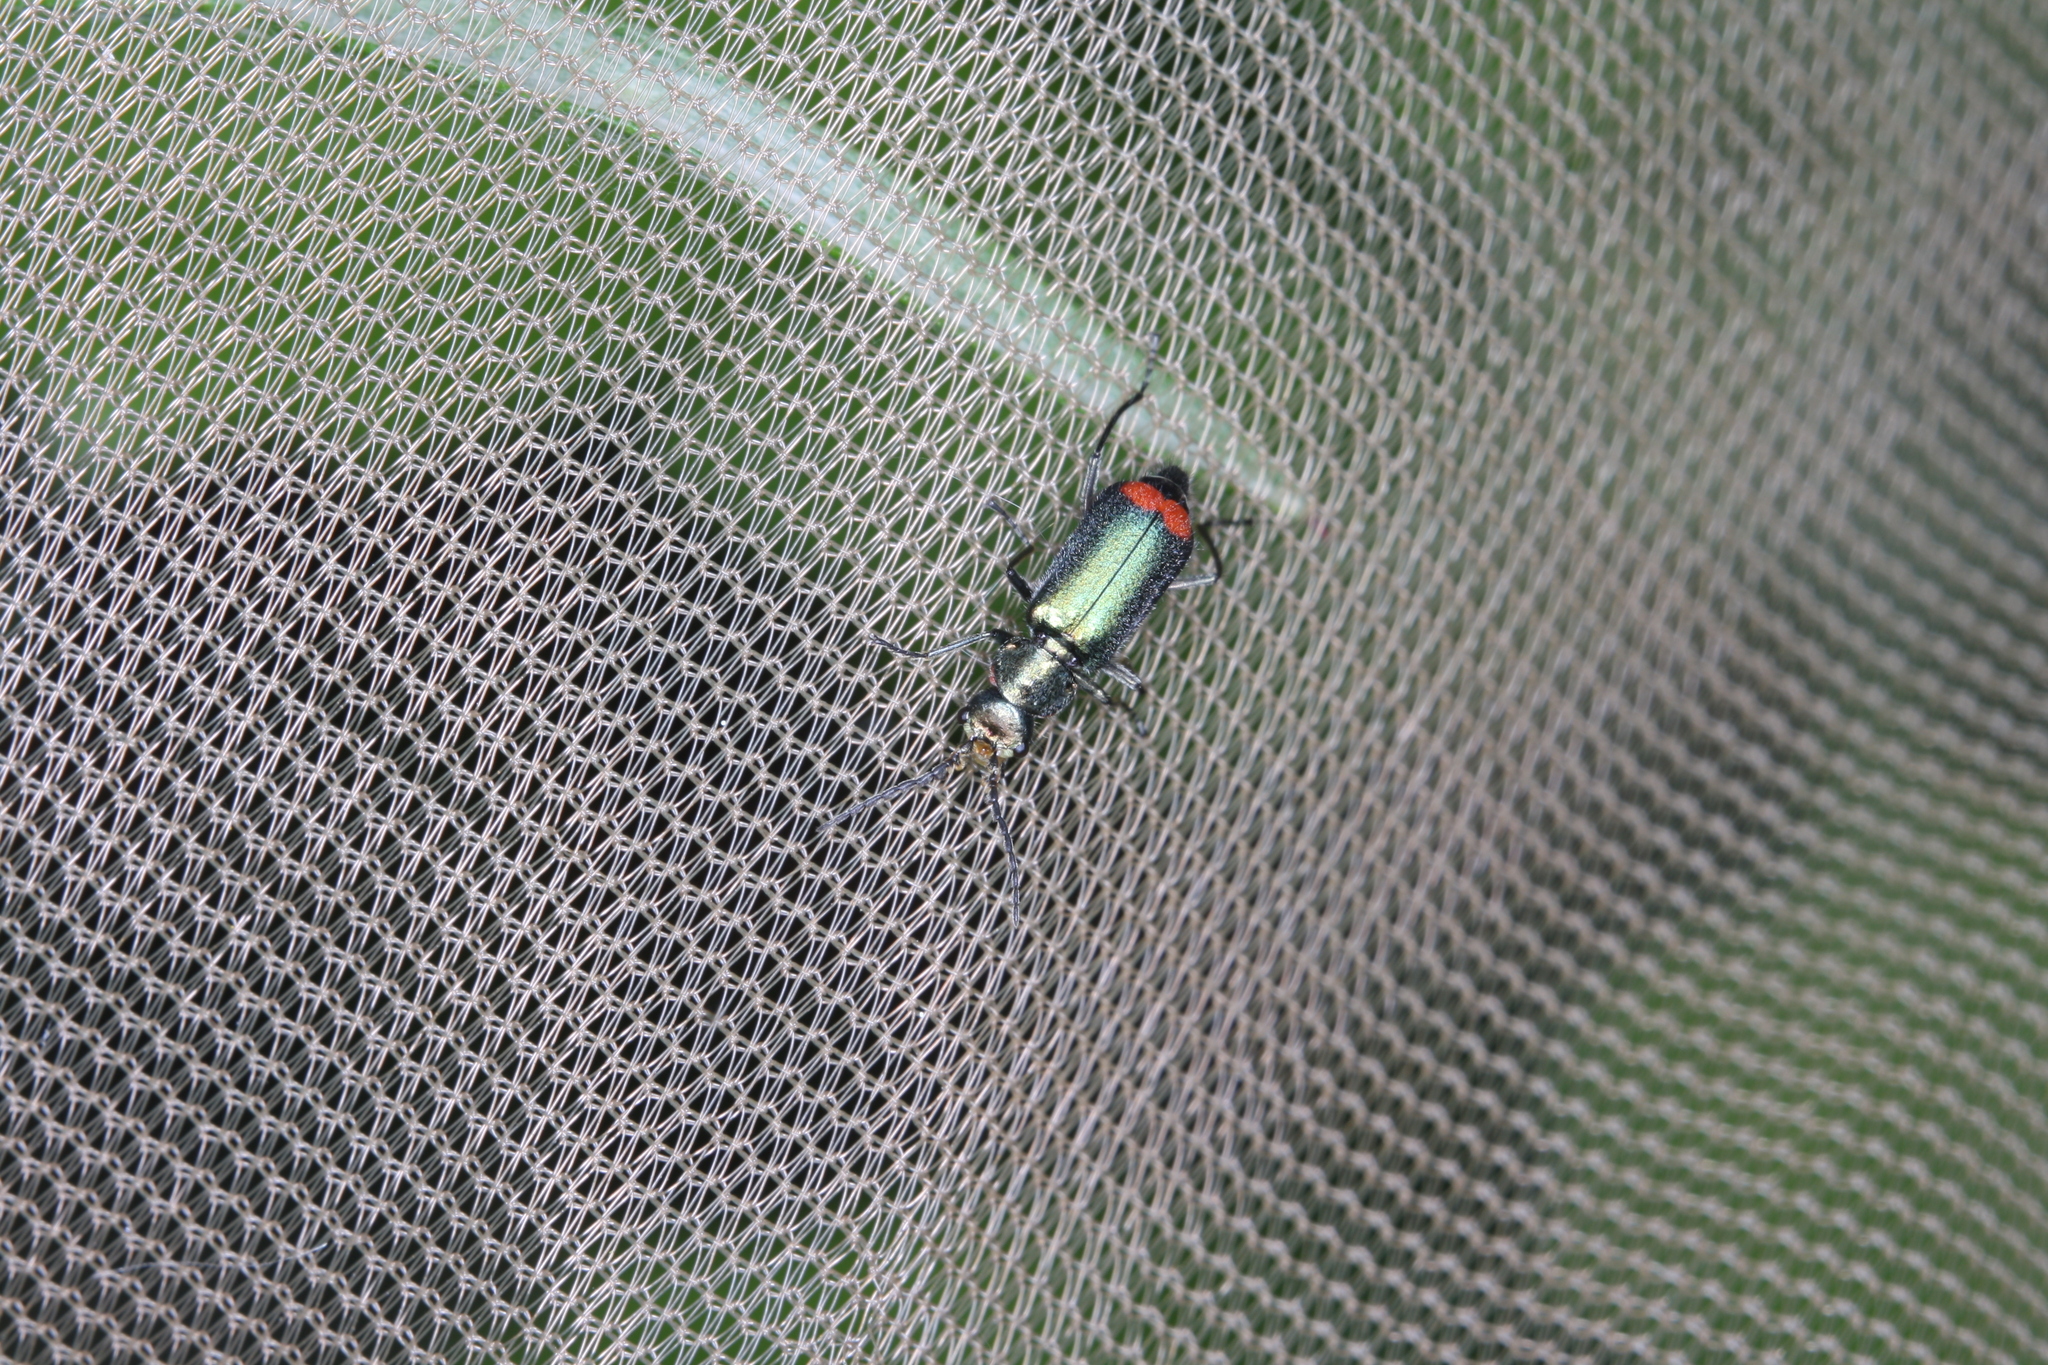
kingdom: Animalia
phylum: Arthropoda
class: Insecta
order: Coleoptera
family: Melyridae
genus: Malachius
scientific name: Malachius bipustulatus
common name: Malachite beetle
